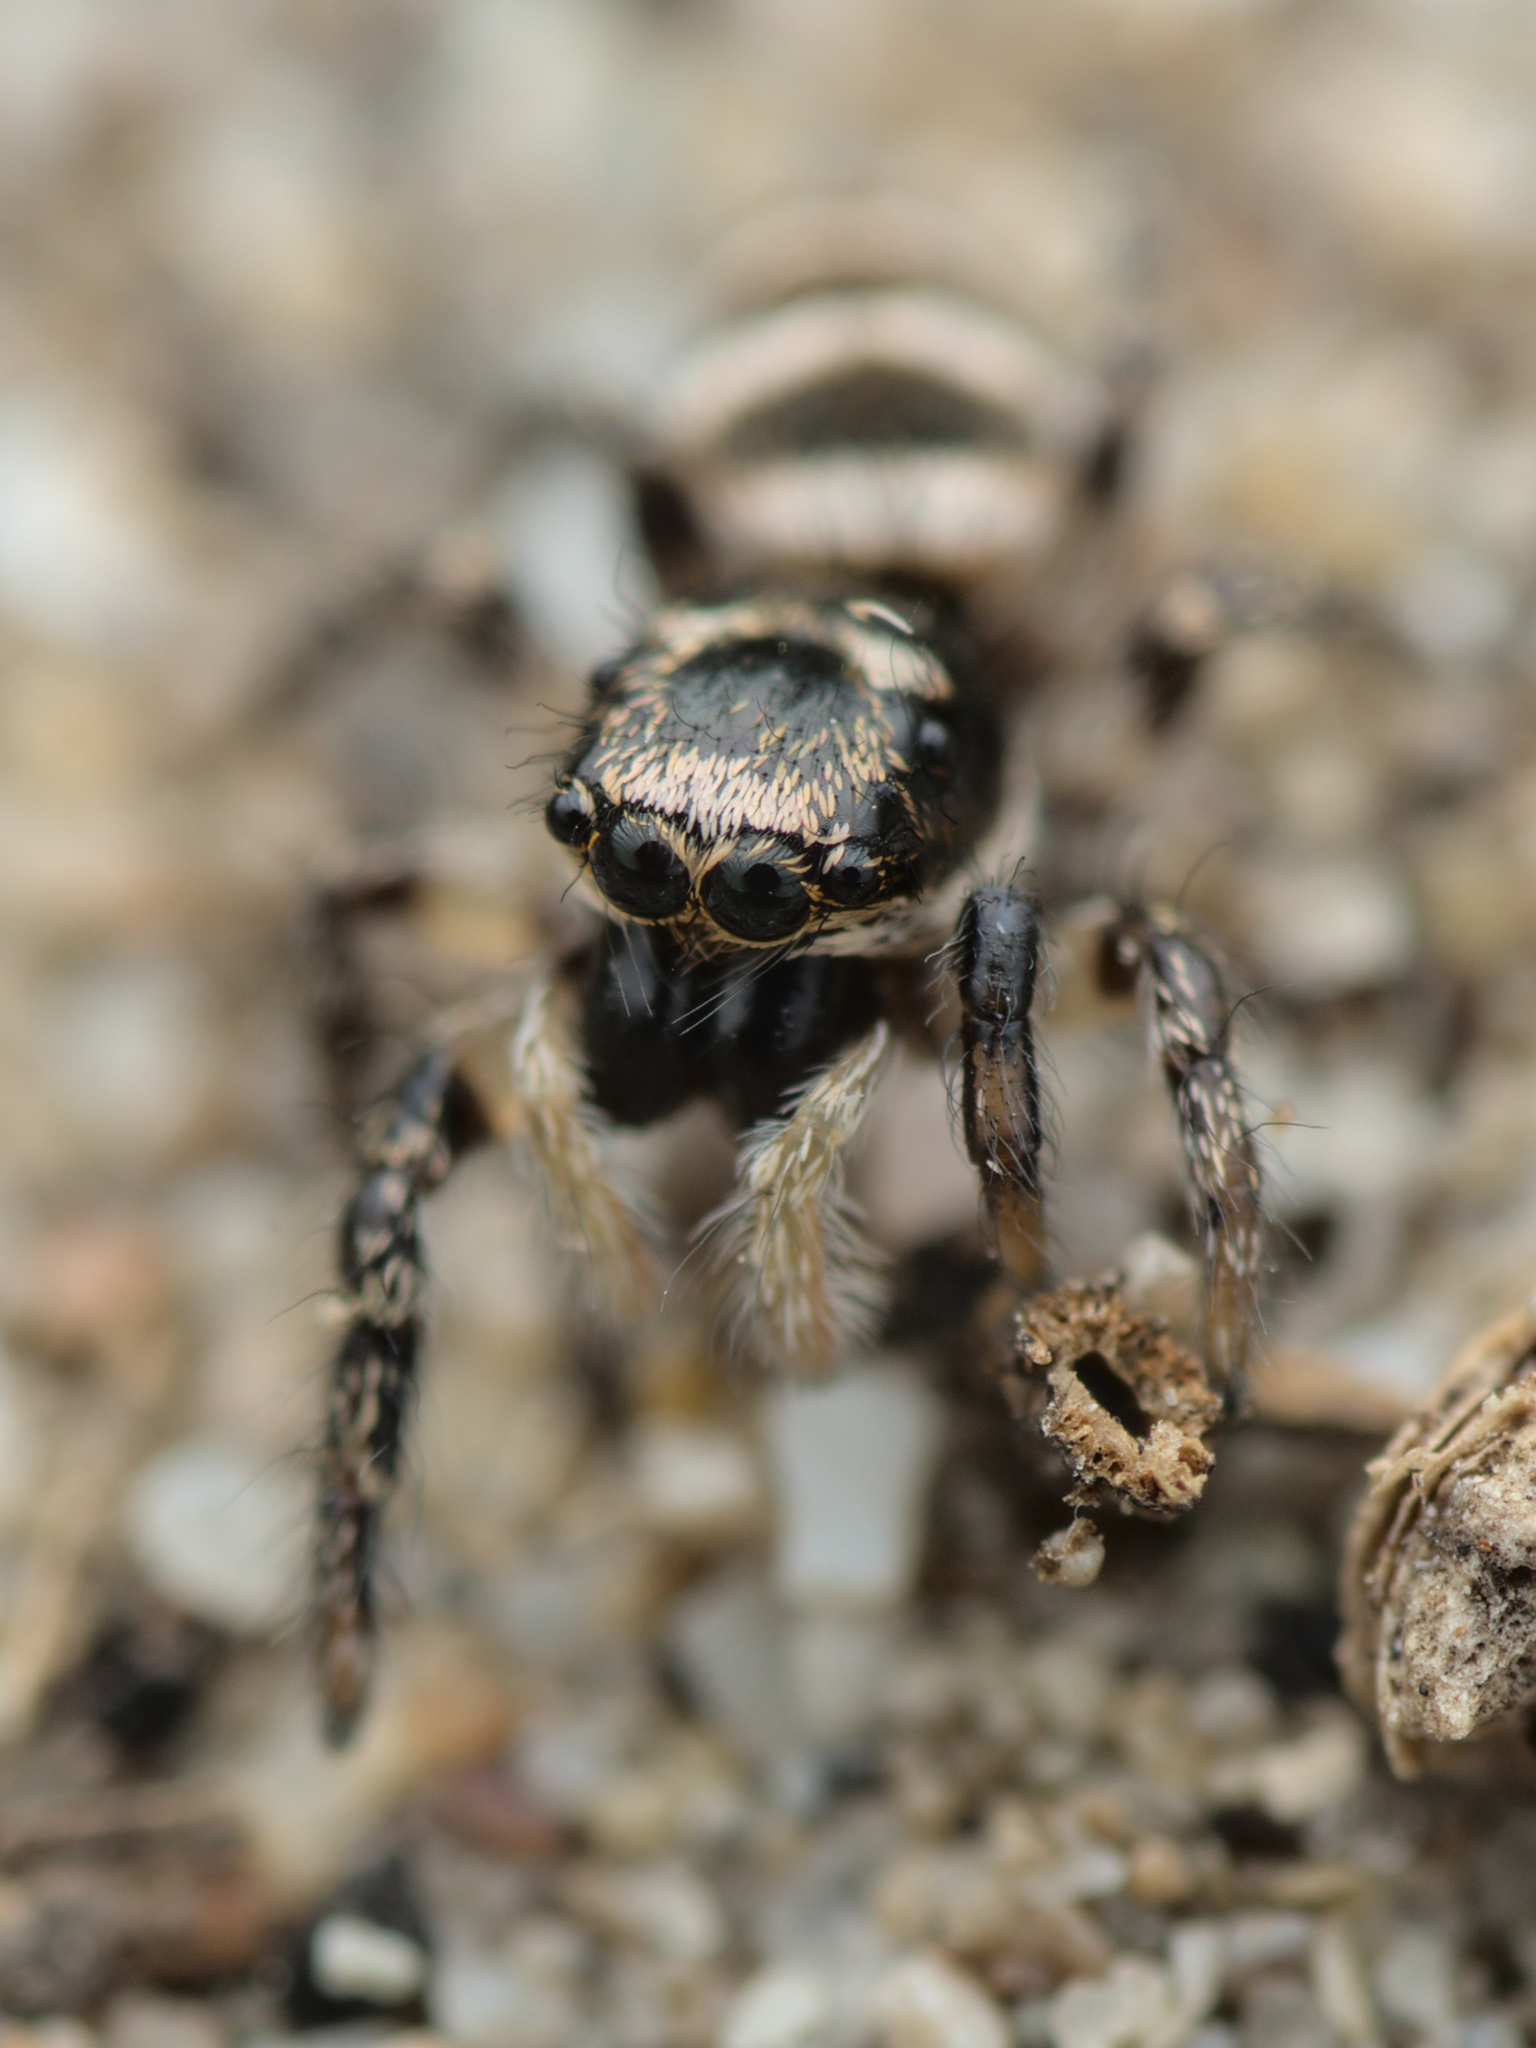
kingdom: Animalia
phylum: Arthropoda
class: Arachnida
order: Araneae
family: Salticidae
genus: Salticus
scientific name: Salticus propinquus
